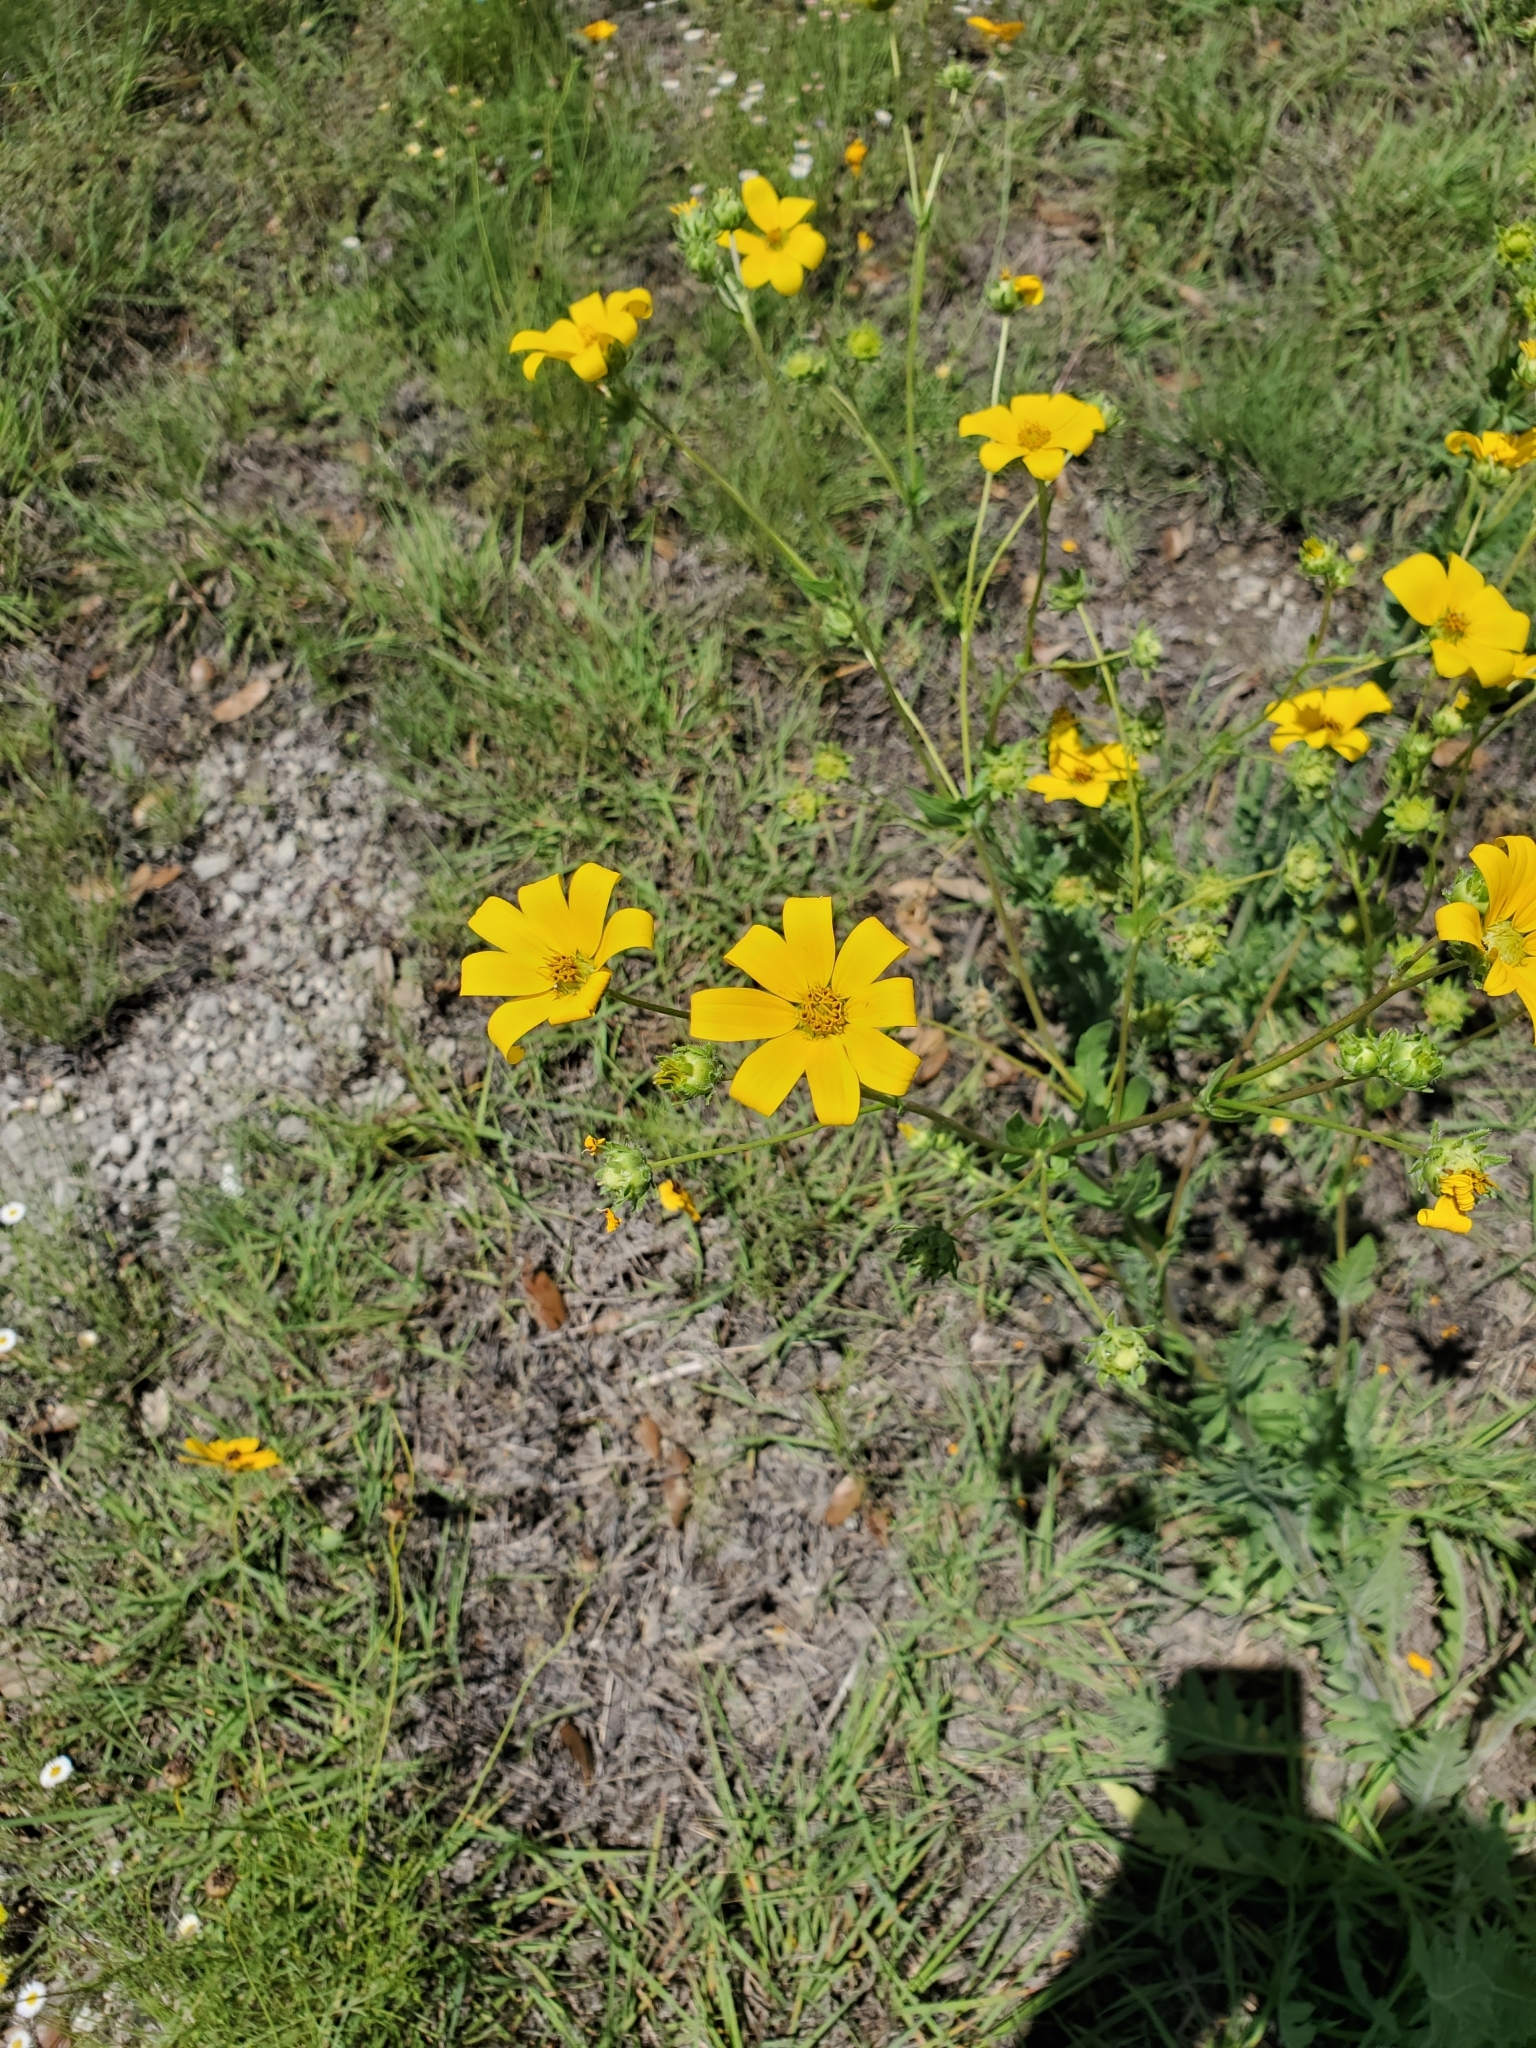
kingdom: Plantae
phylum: Tracheophyta
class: Magnoliopsida
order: Asterales
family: Asteraceae
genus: Engelmannia
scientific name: Engelmannia peristenia
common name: Engelmann's daisy
